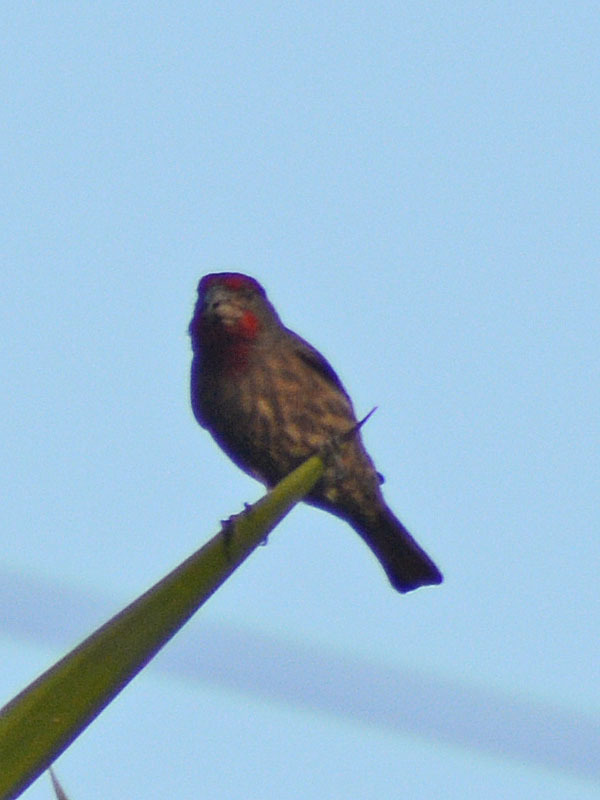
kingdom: Animalia
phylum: Chordata
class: Aves
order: Passeriformes
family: Fringillidae
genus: Haemorhous
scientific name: Haemorhous mexicanus
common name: House finch
